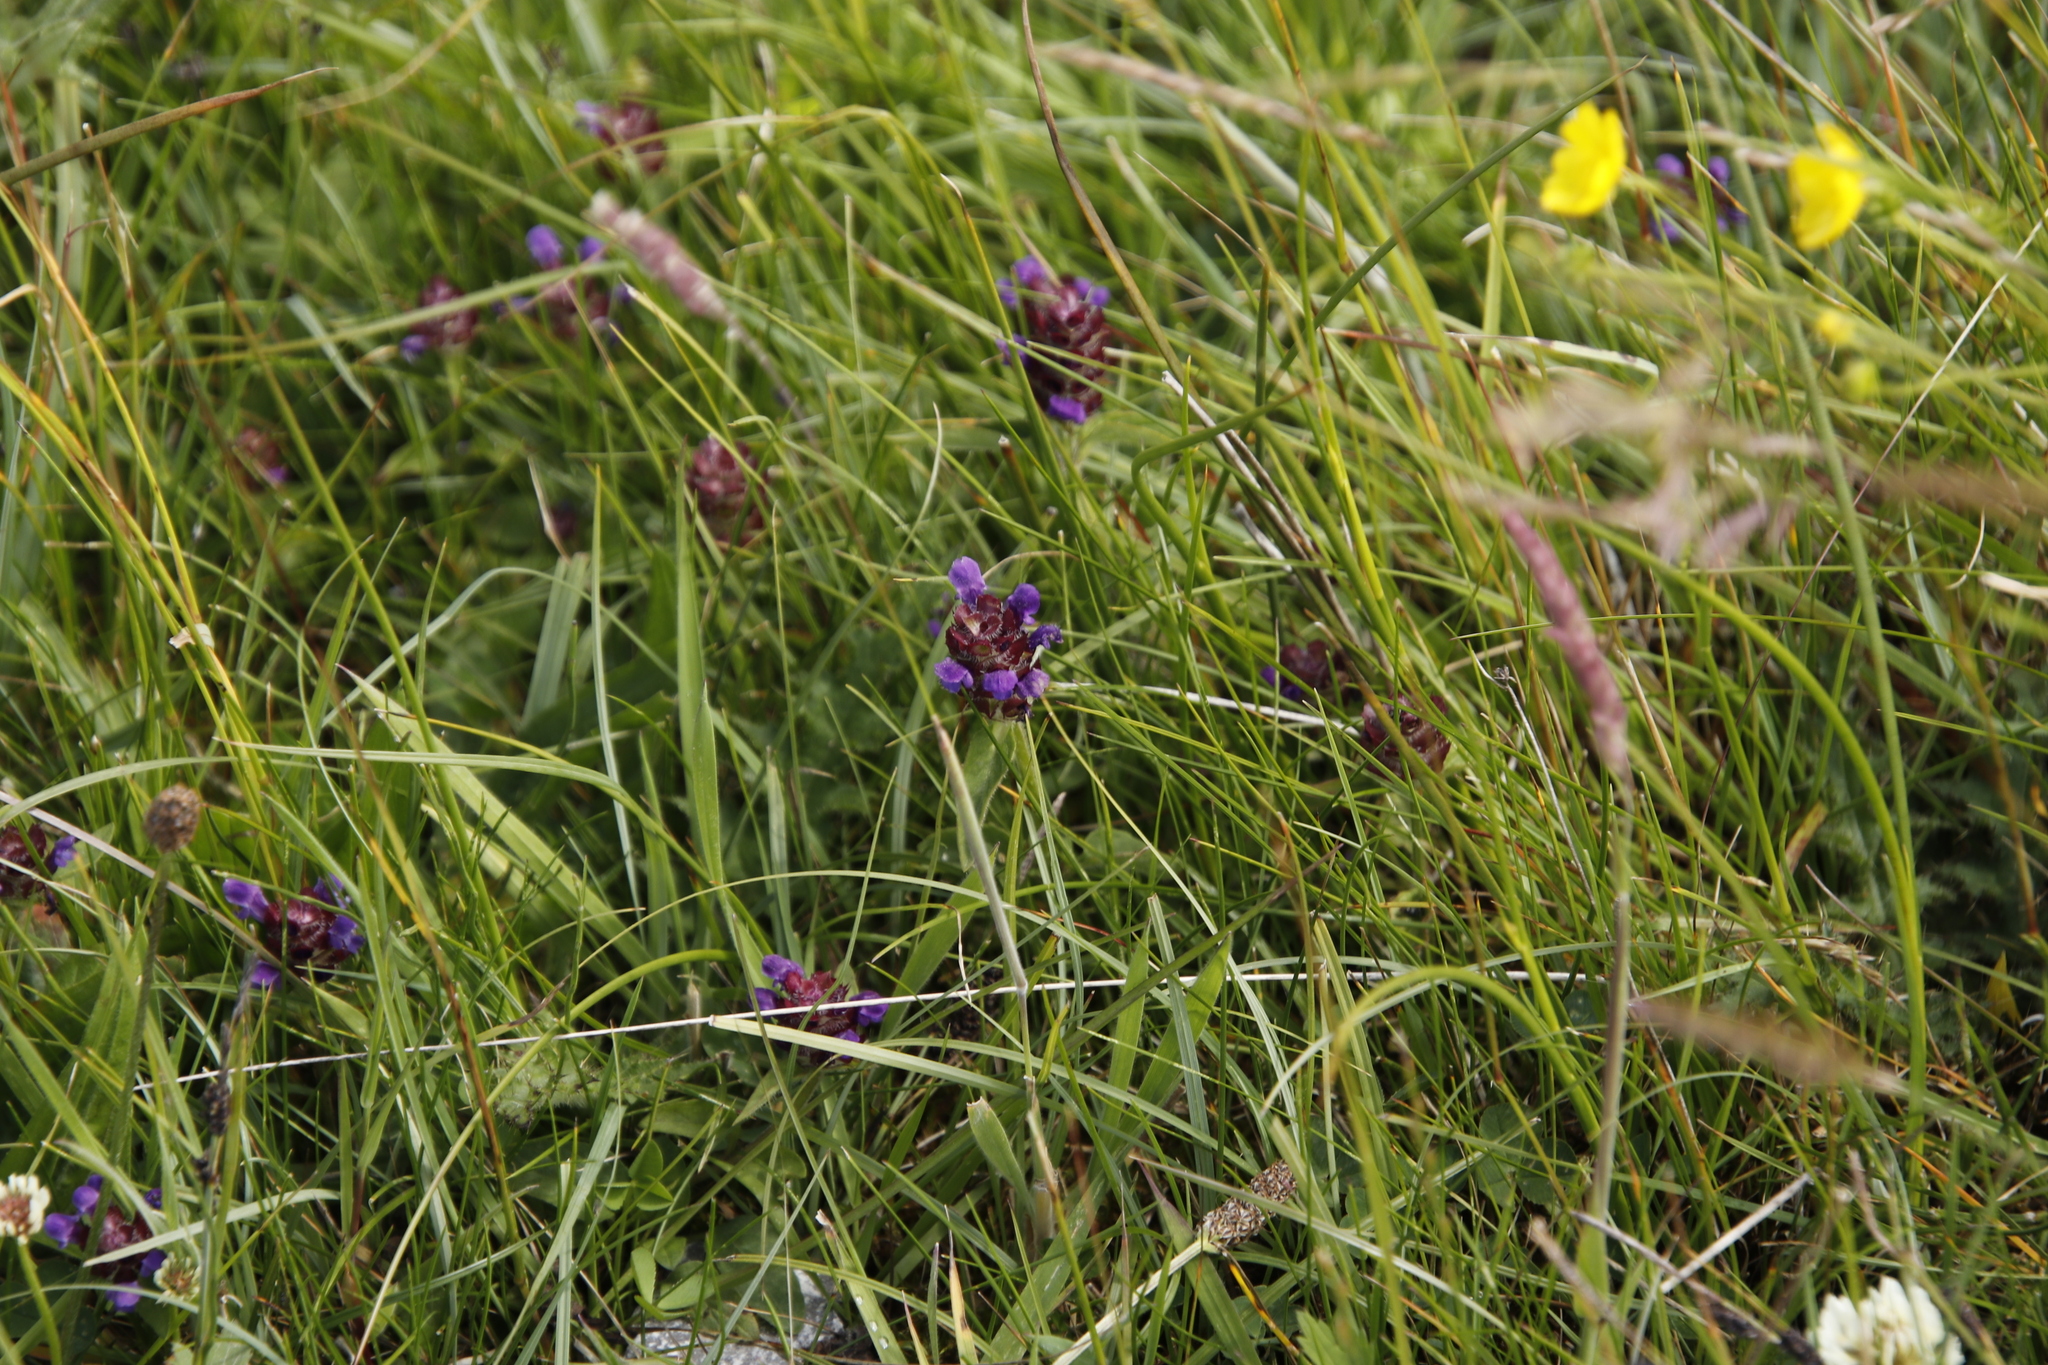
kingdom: Plantae
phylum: Tracheophyta
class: Magnoliopsida
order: Lamiales
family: Lamiaceae
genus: Prunella
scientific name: Prunella vulgaris
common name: Heal-all
